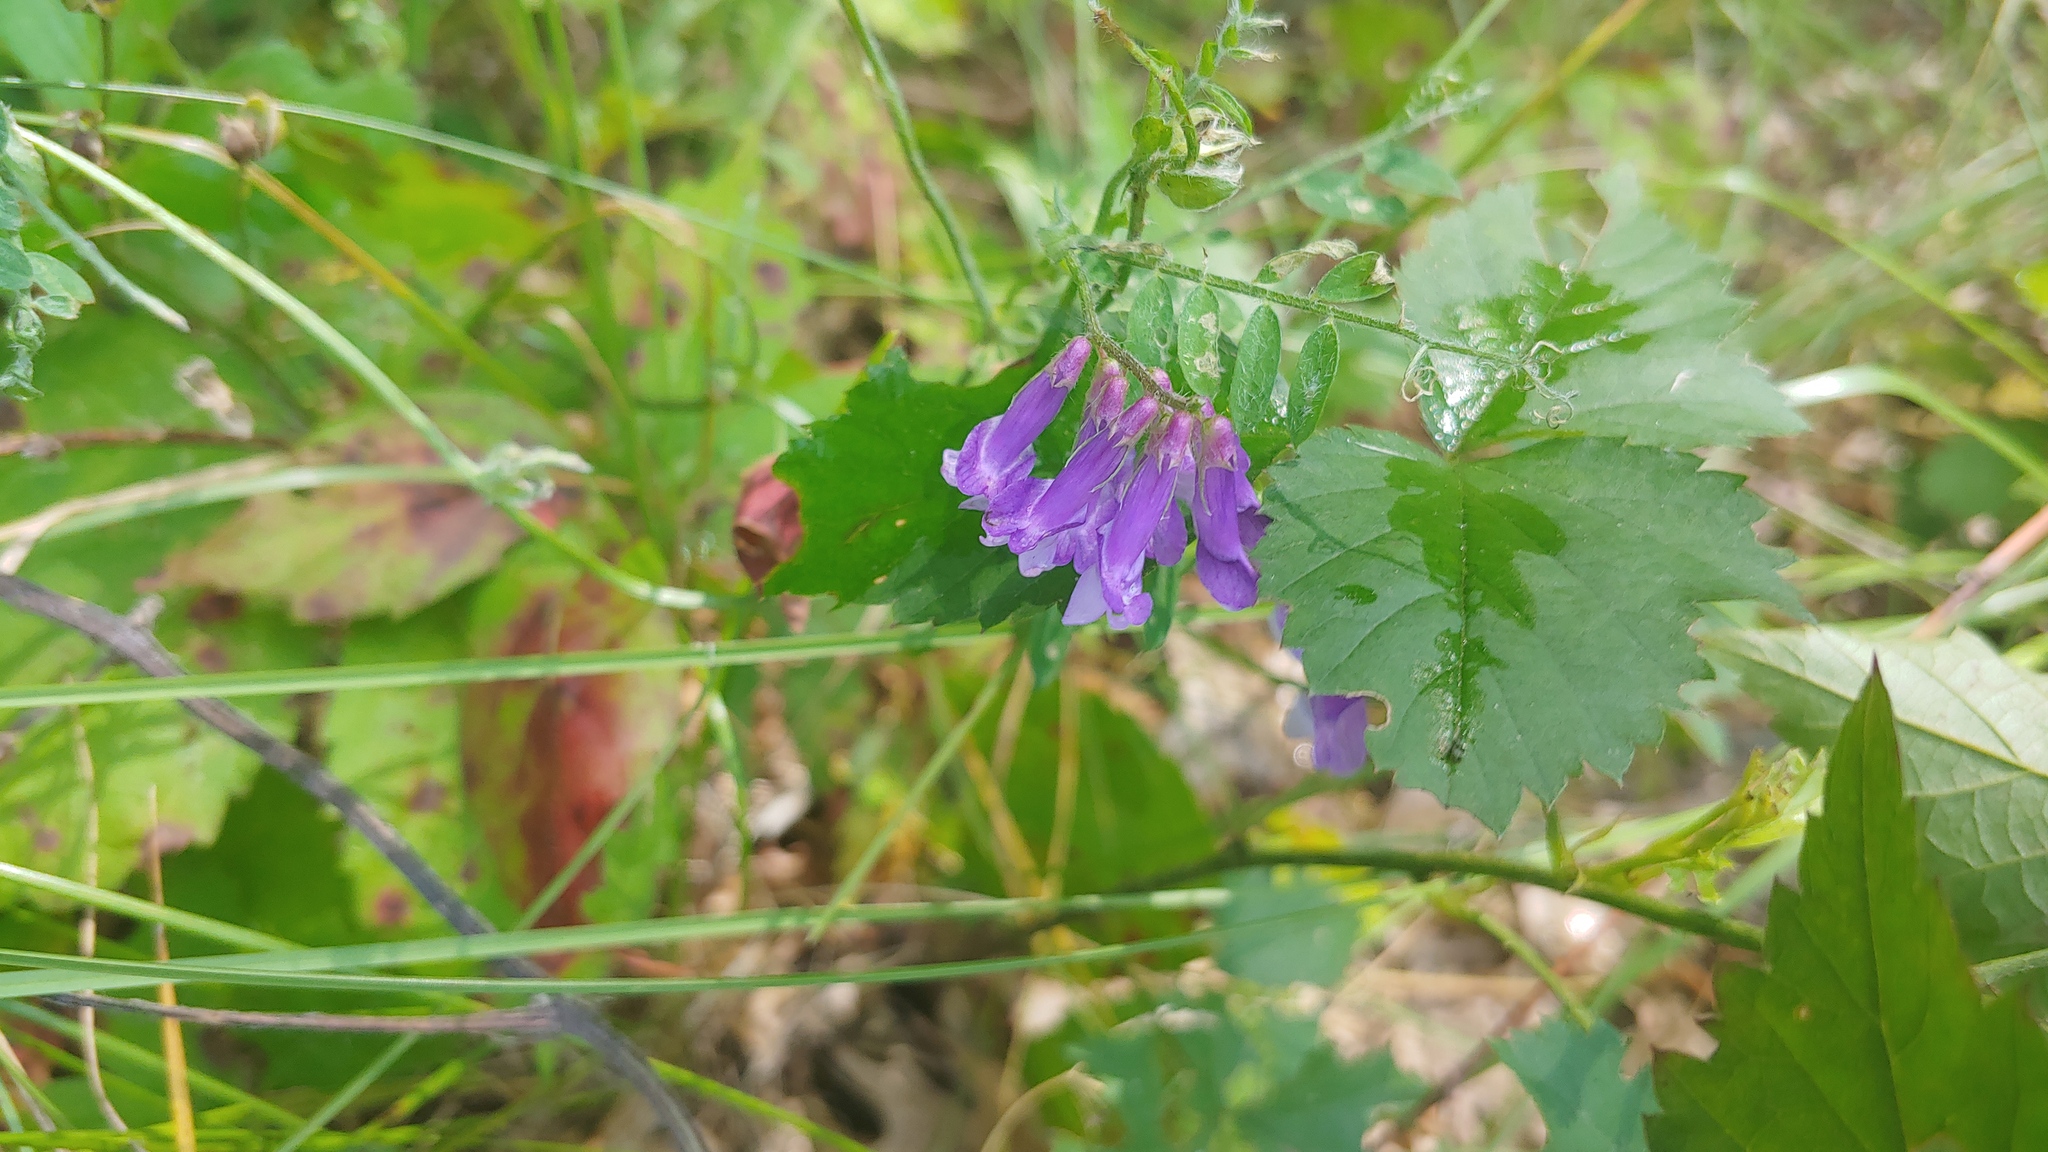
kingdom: Plantae
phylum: Tracheophyta
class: Magnoliopsida
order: Fabales
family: Fabaceae
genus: Vicia
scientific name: Vicia villosa
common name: Fodder vetch
